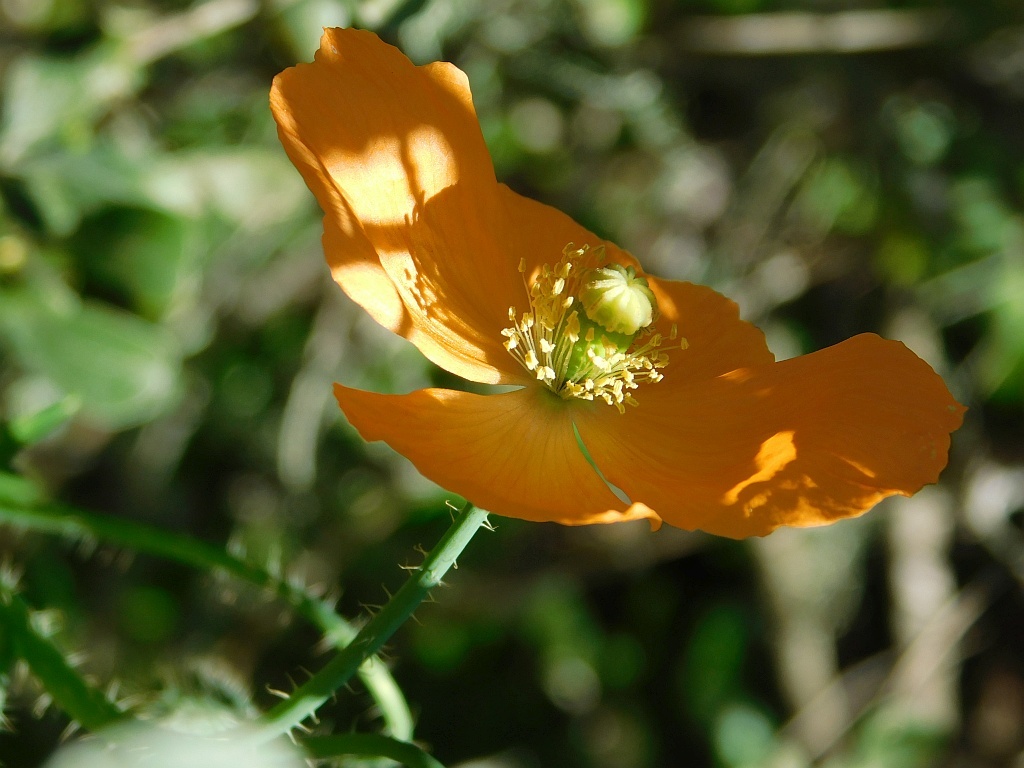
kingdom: Plantae
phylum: Tracheophyta
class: Magnoliopsida
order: Ranunculales
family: Papaveraceae
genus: Papaver
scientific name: Papaver aculeatum
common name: Bristle poppy
